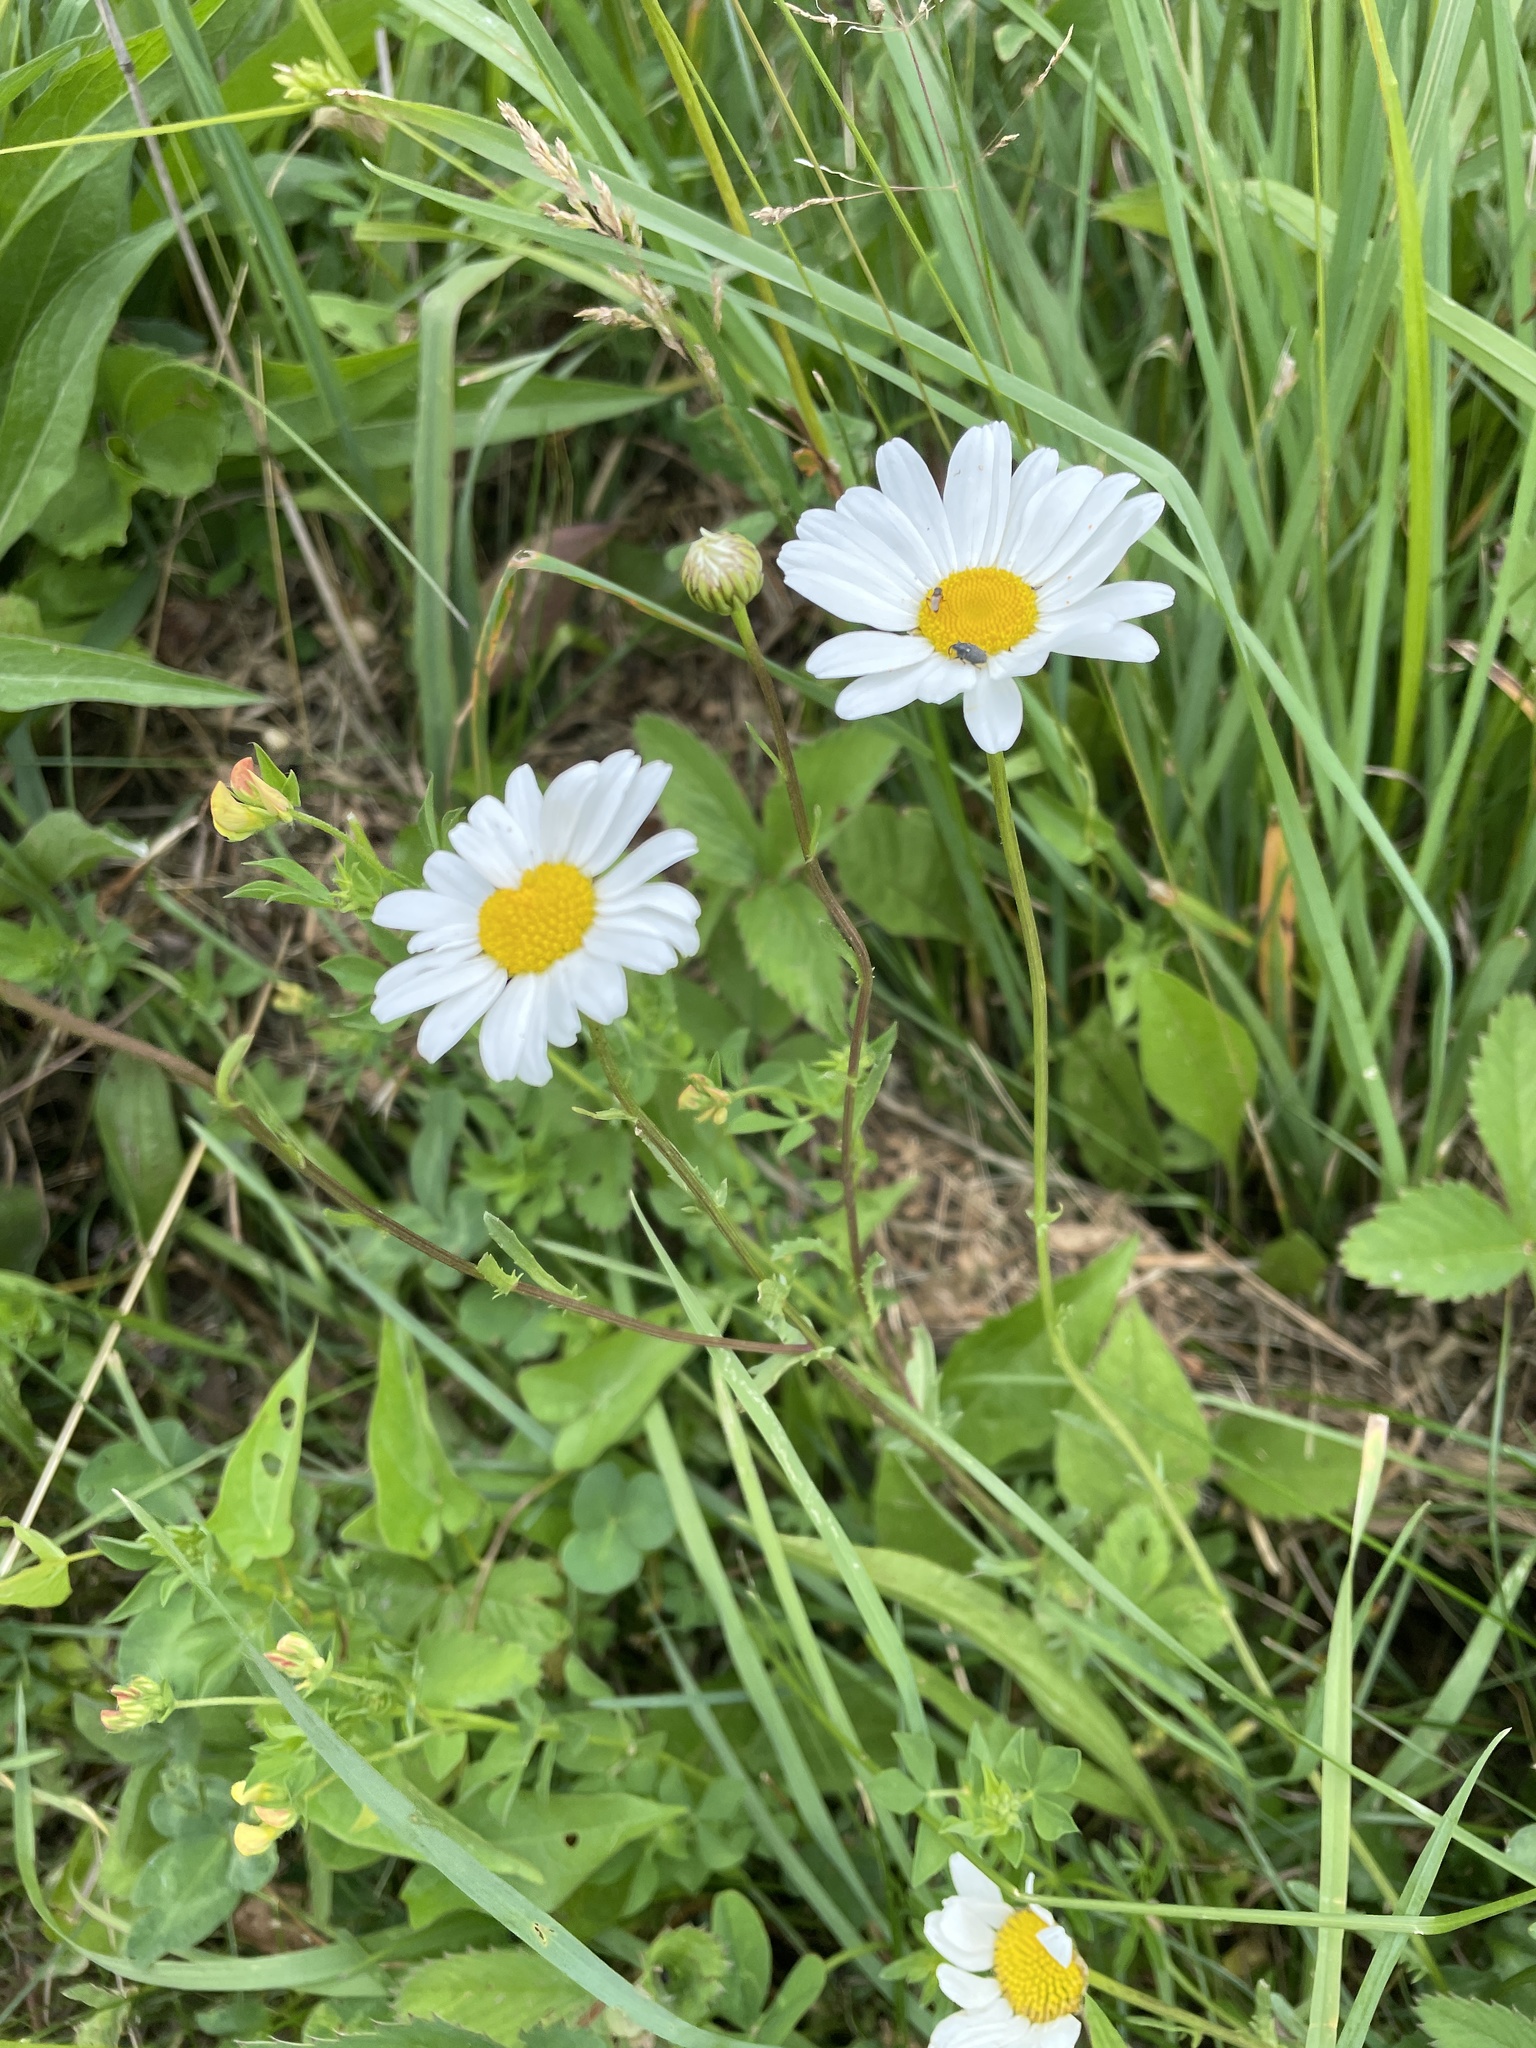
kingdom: Plantae
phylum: Tracheophyta
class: Magnoliopsida
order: Asterales
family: Asteraceae
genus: Leucanthemum
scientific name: Leucanthemum vulgare
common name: Oxeye daisy
